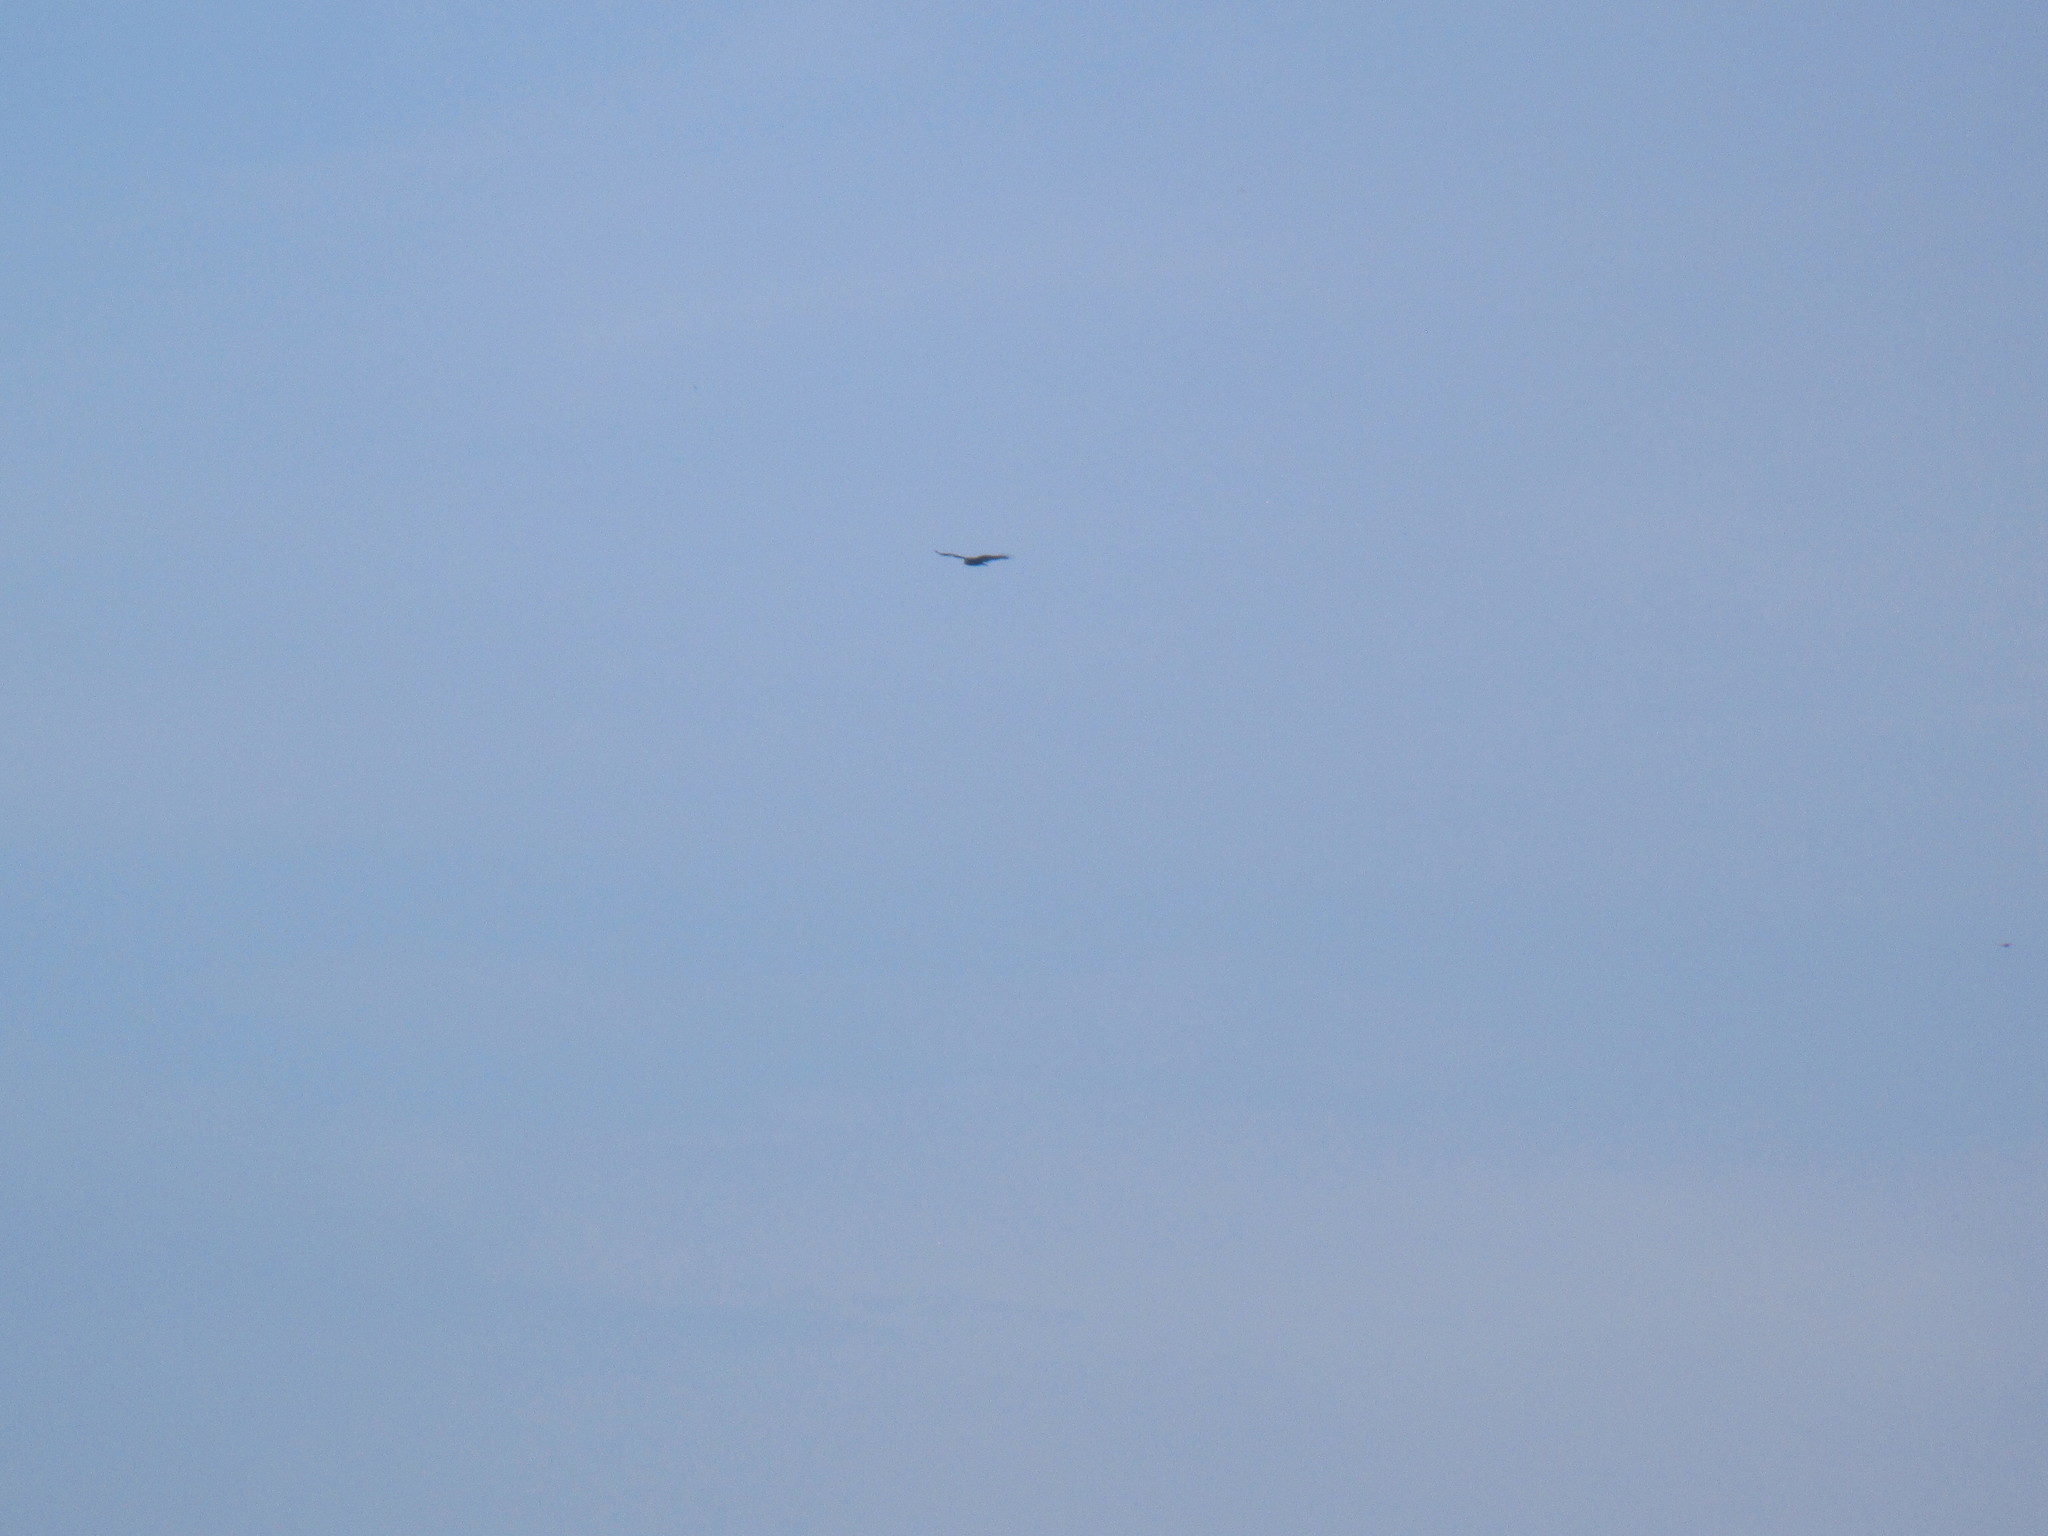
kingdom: Animalia
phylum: Chordata
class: Aves
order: Accipitriformes
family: Cathartidae
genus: Cathartes
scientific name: Cathartes aura
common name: Turkey vulture
